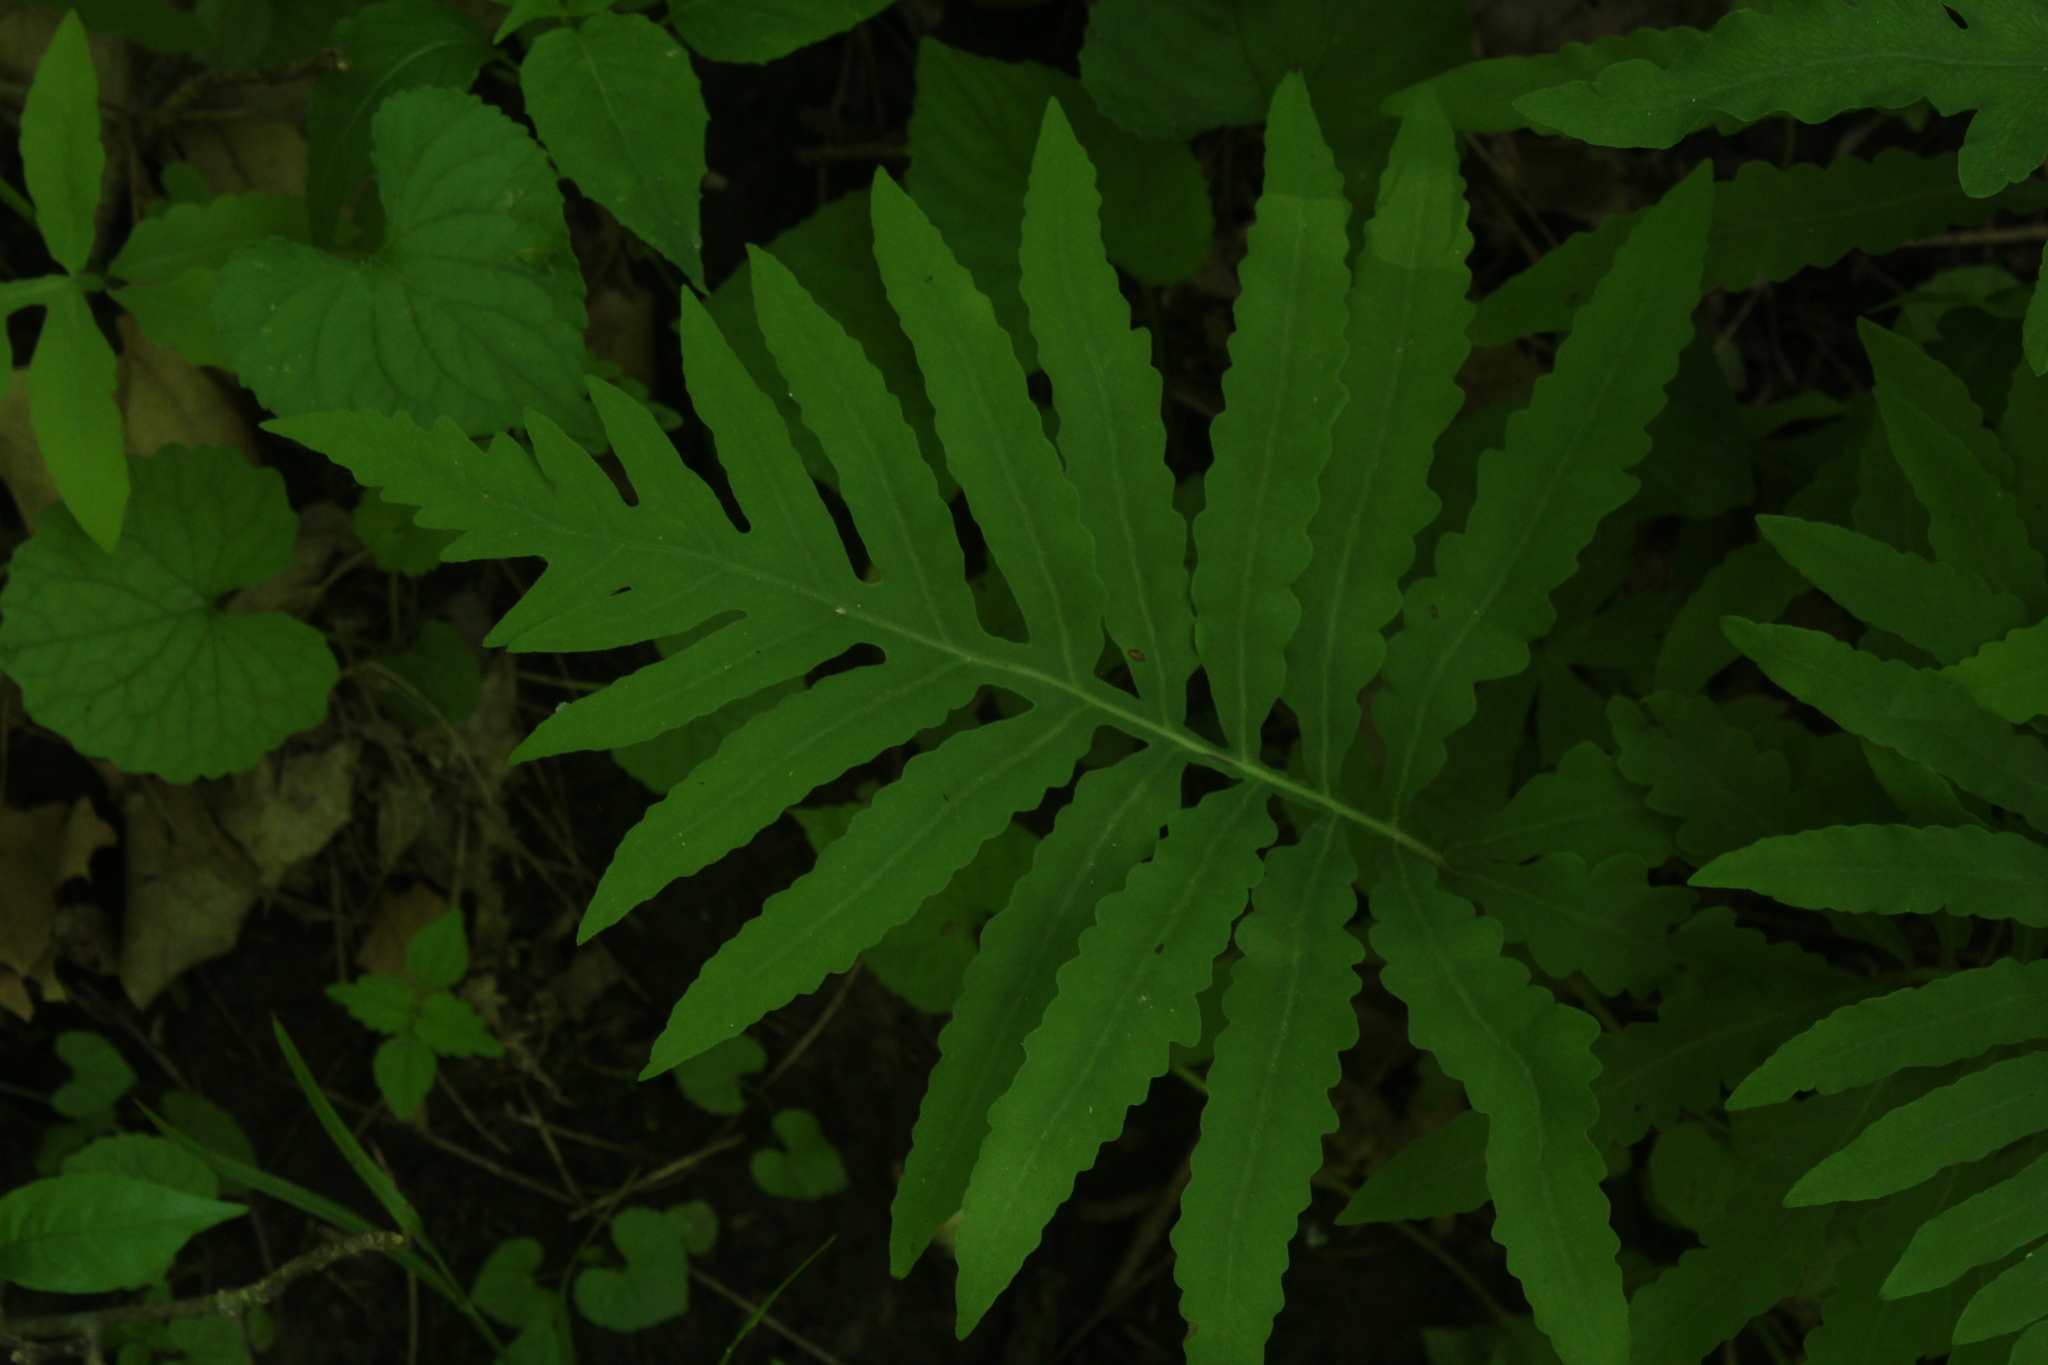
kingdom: Plantae
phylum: Tracheophyta
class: Polypodiopsida
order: Polypodiales
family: Onocleaceae
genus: Onoclea
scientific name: Onoclea sensibilis
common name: Sensitive fern
